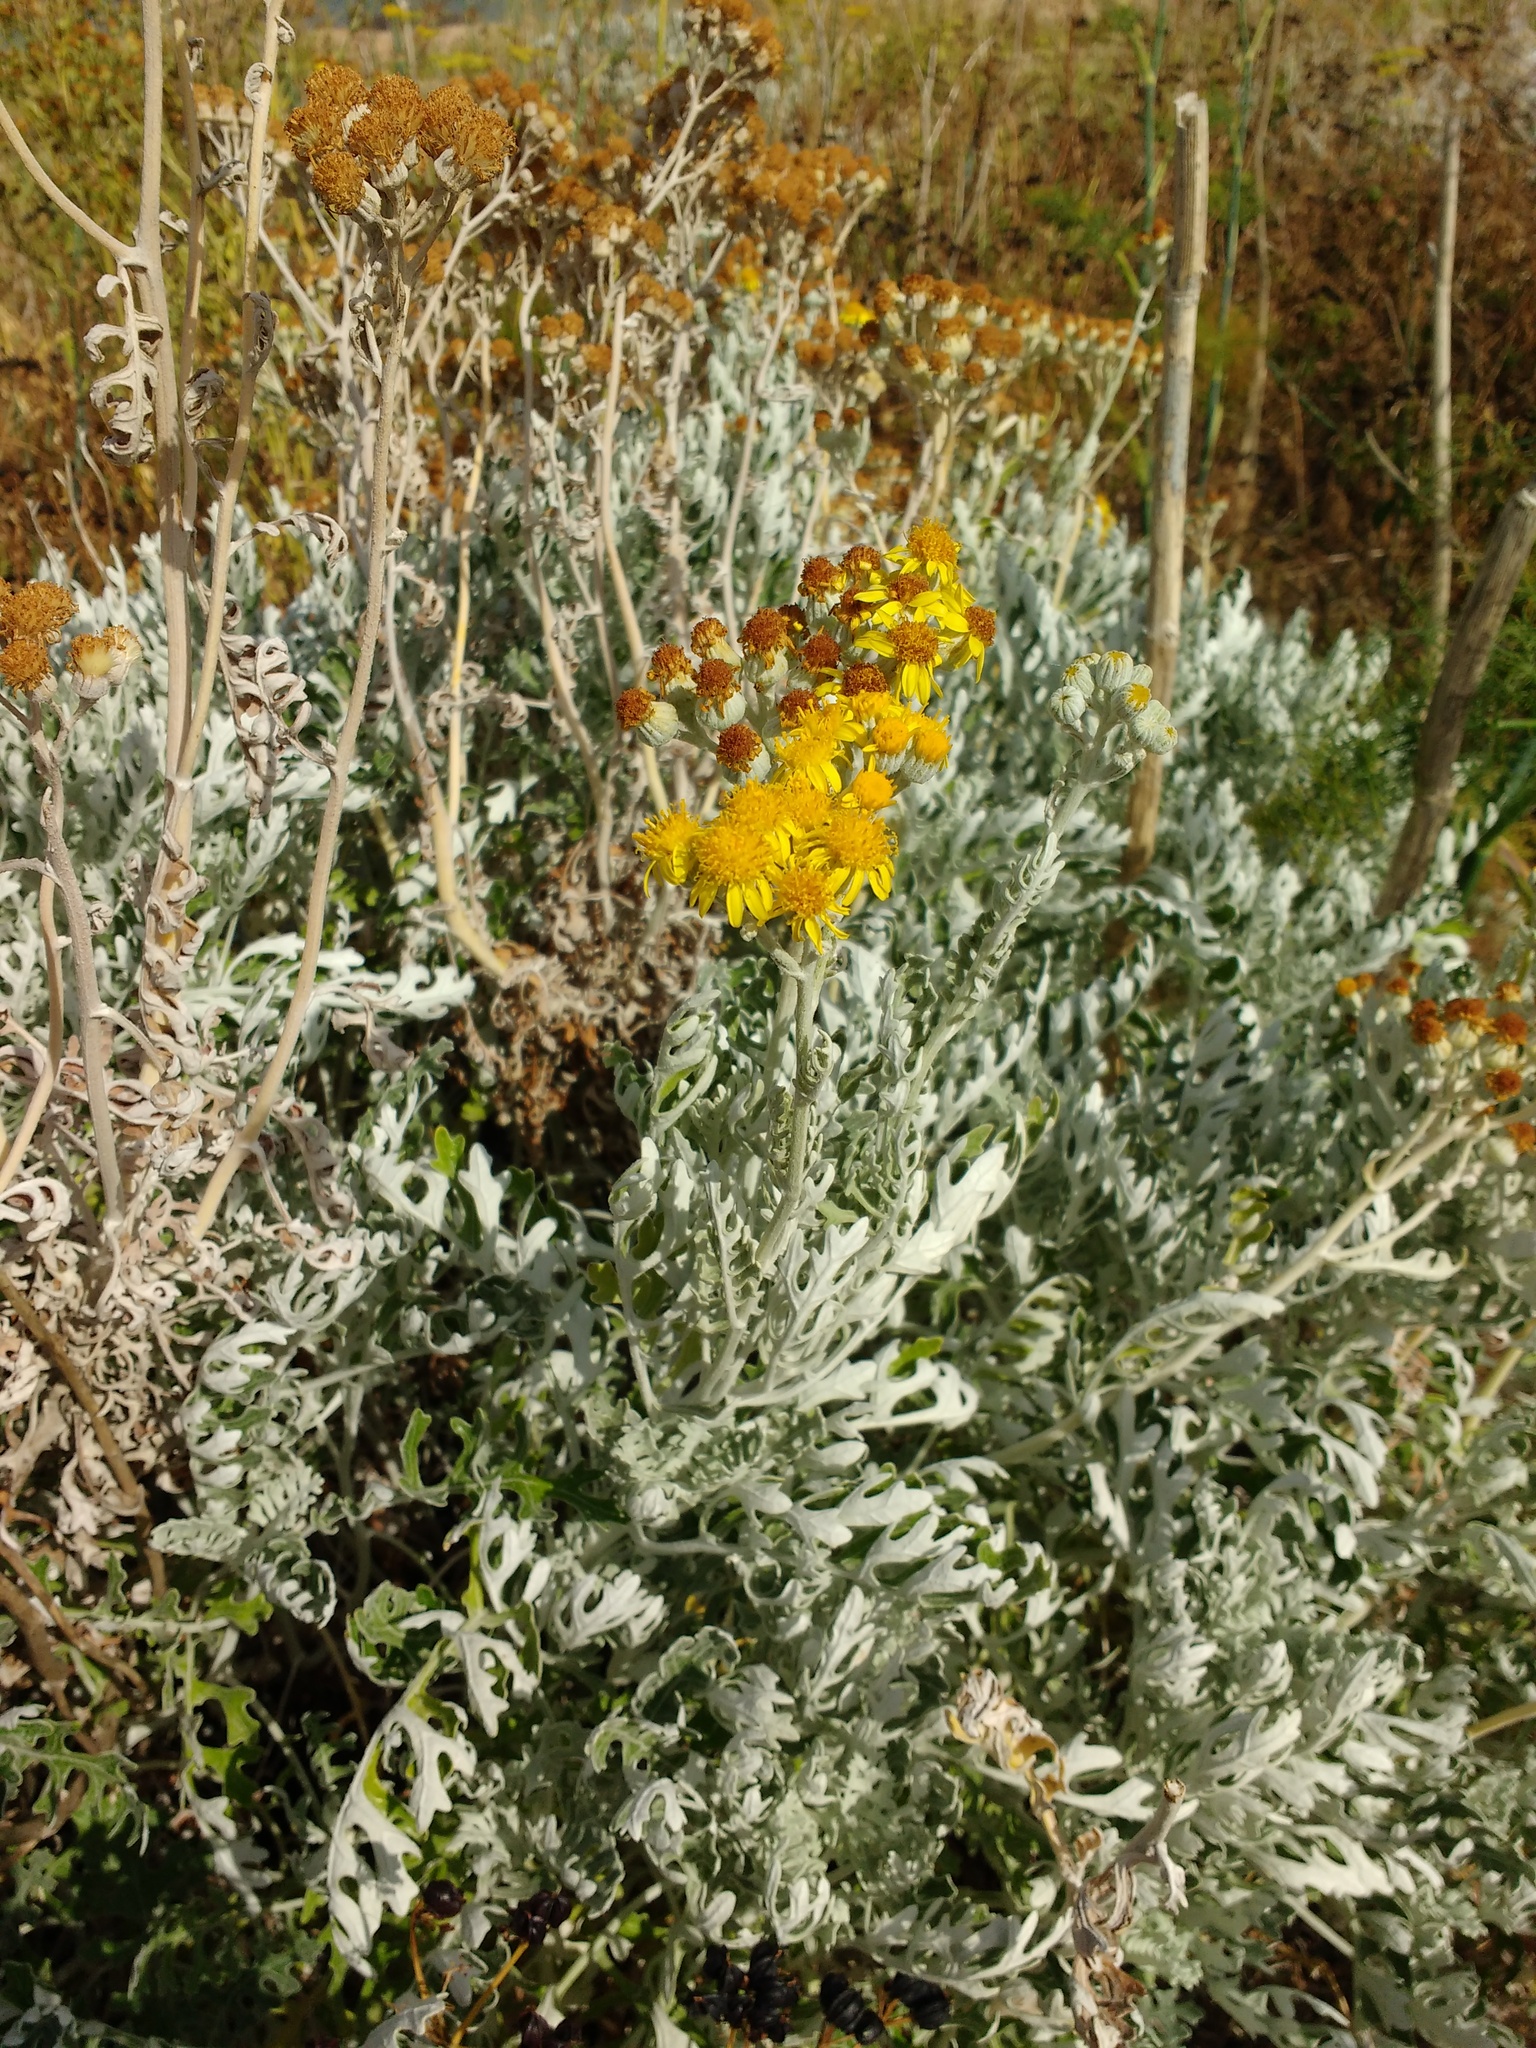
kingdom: Plantae
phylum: Tracheophyta
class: Magnoliopsida
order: Asterales
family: Asteraceae
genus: Jacobaea
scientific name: Jacobaea maritima
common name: Silver ragwort
